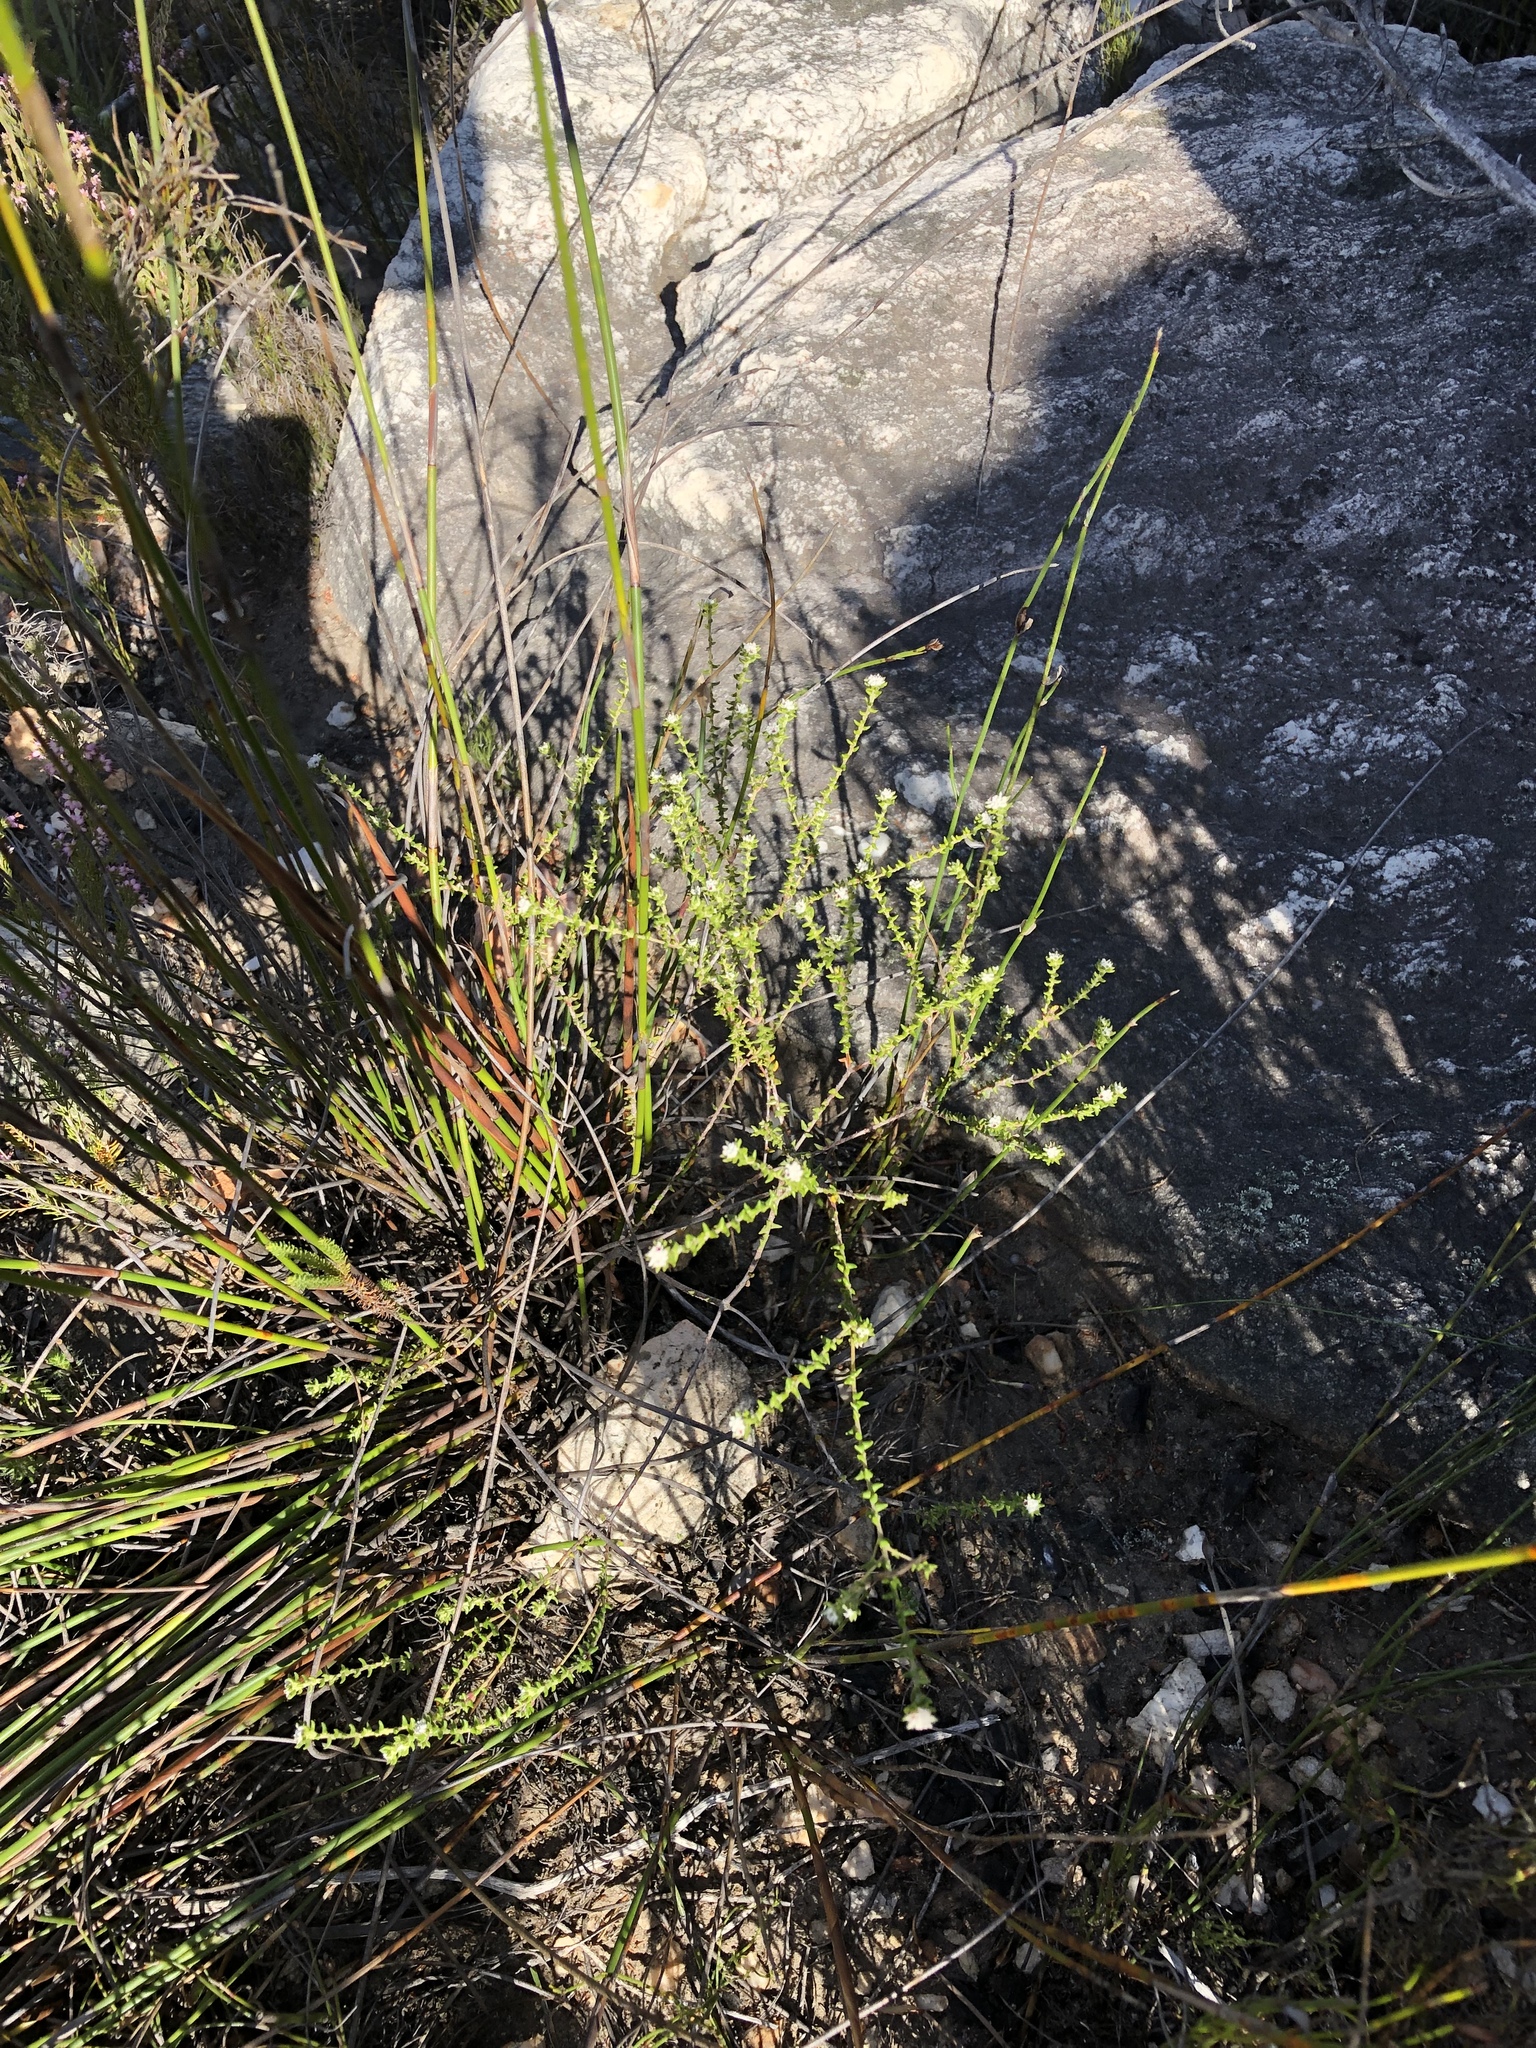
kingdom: Plantae
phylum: Tracheophyta
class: Magnoliopsida
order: Rosales
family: Rhamnaceae
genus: Phylica
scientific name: Phylica debilis
